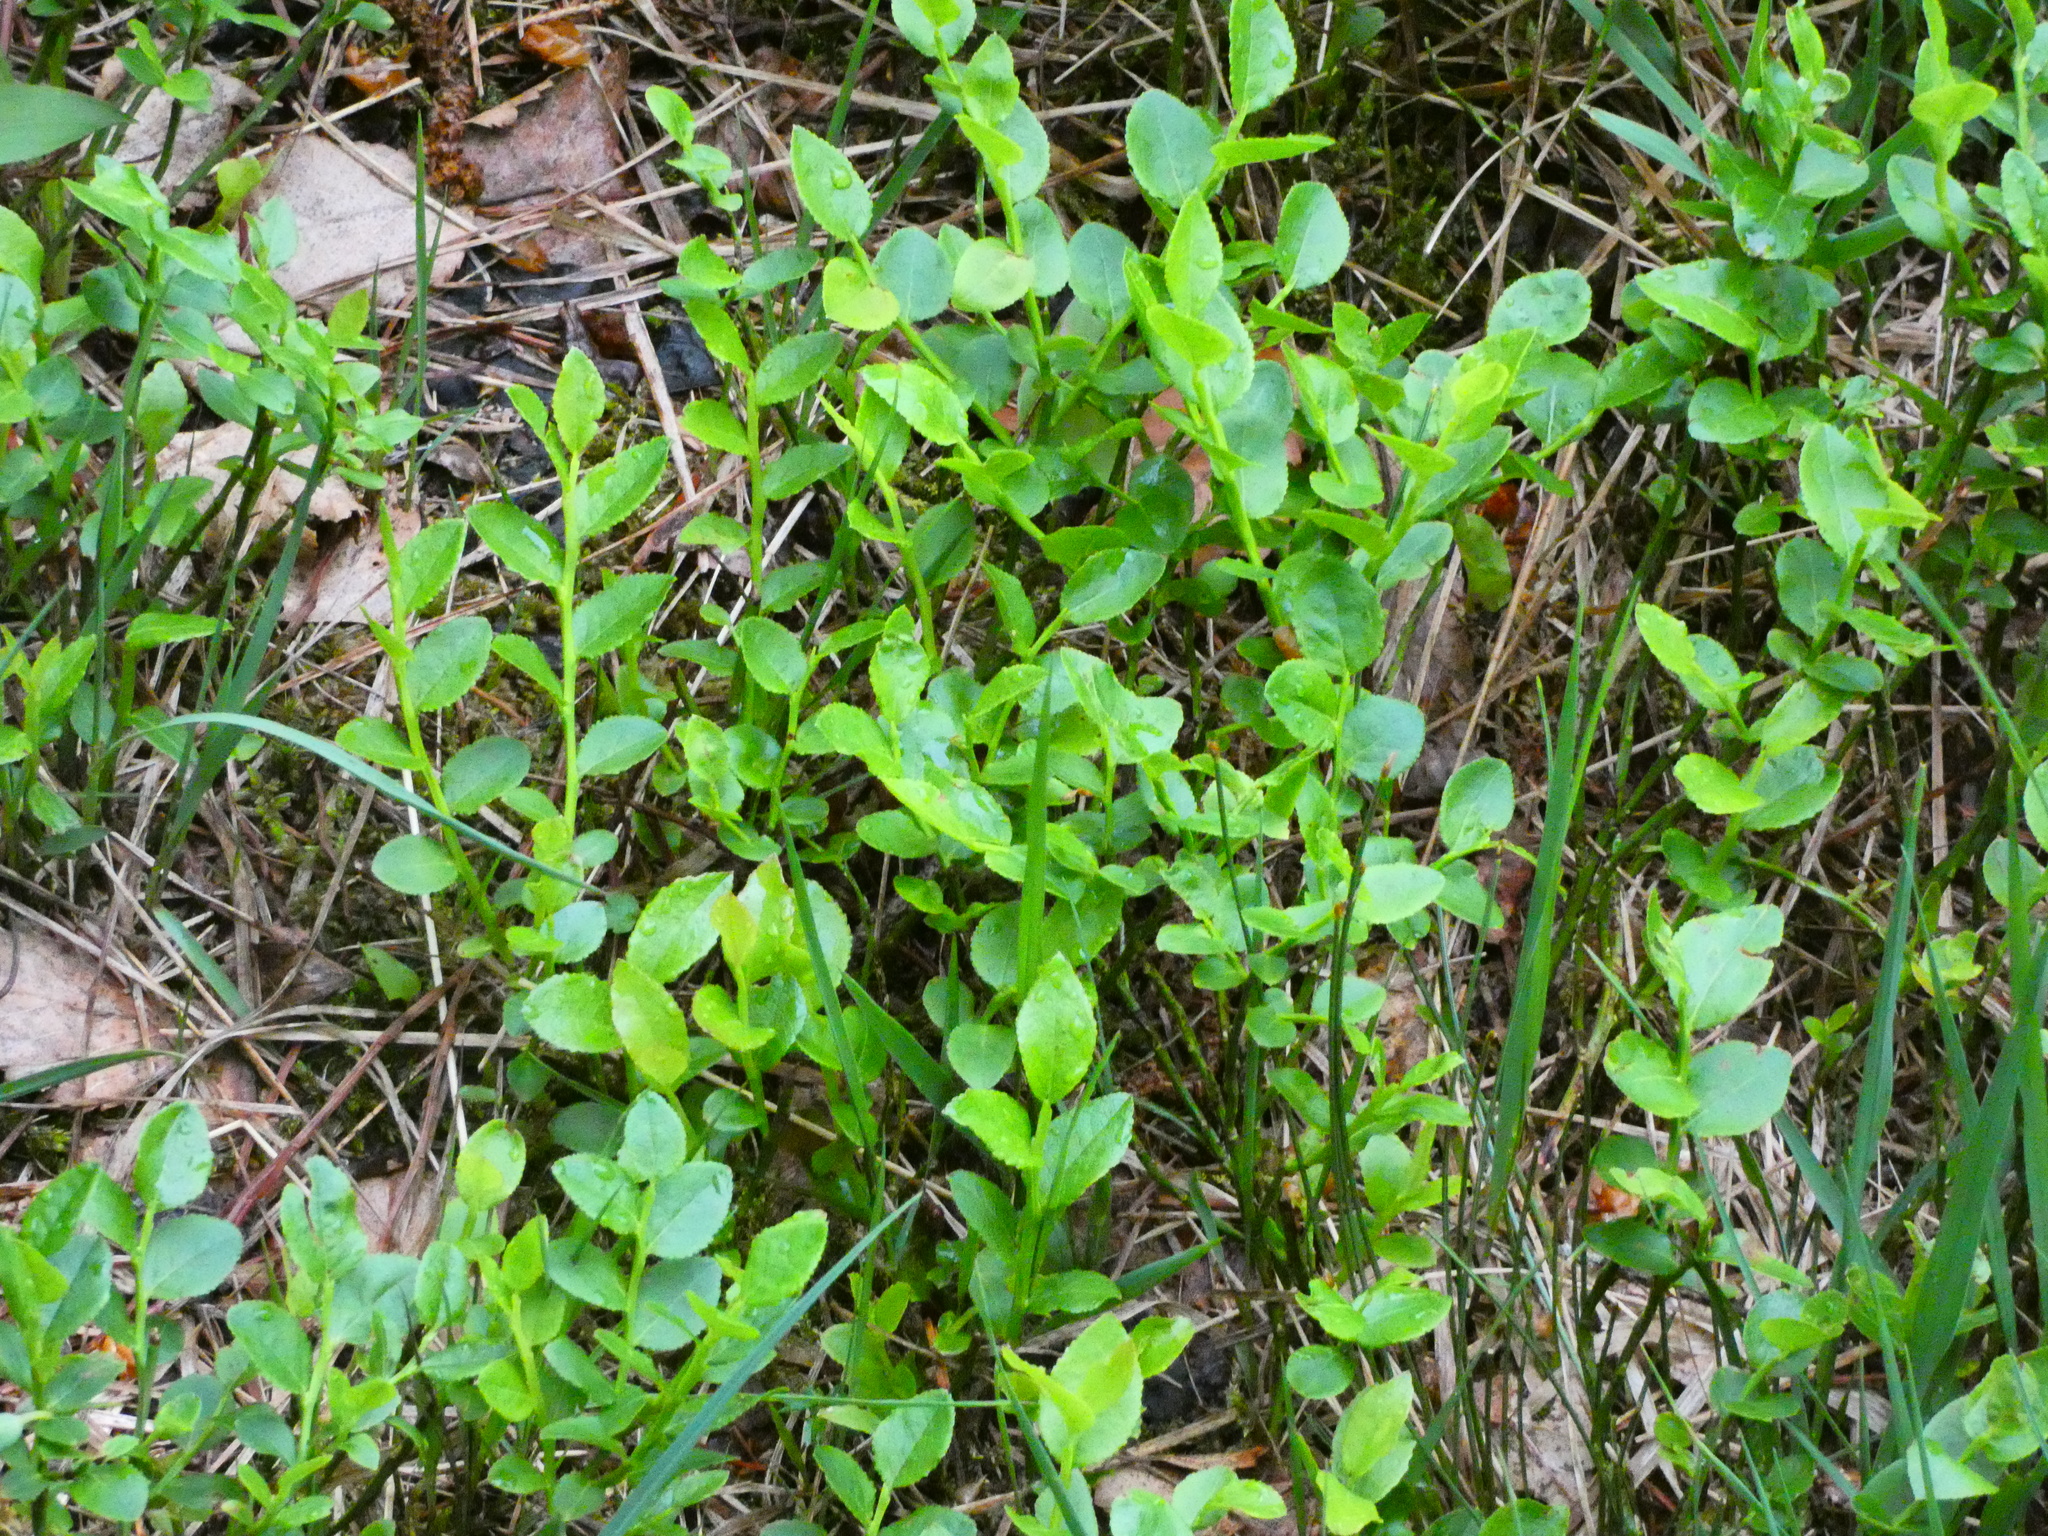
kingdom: Plantae
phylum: Tracheophyta
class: Magnoliopsida
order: Ericales
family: Ericaceae
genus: Vaccinium
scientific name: Vaccinium myrtillus
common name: Bilberry
